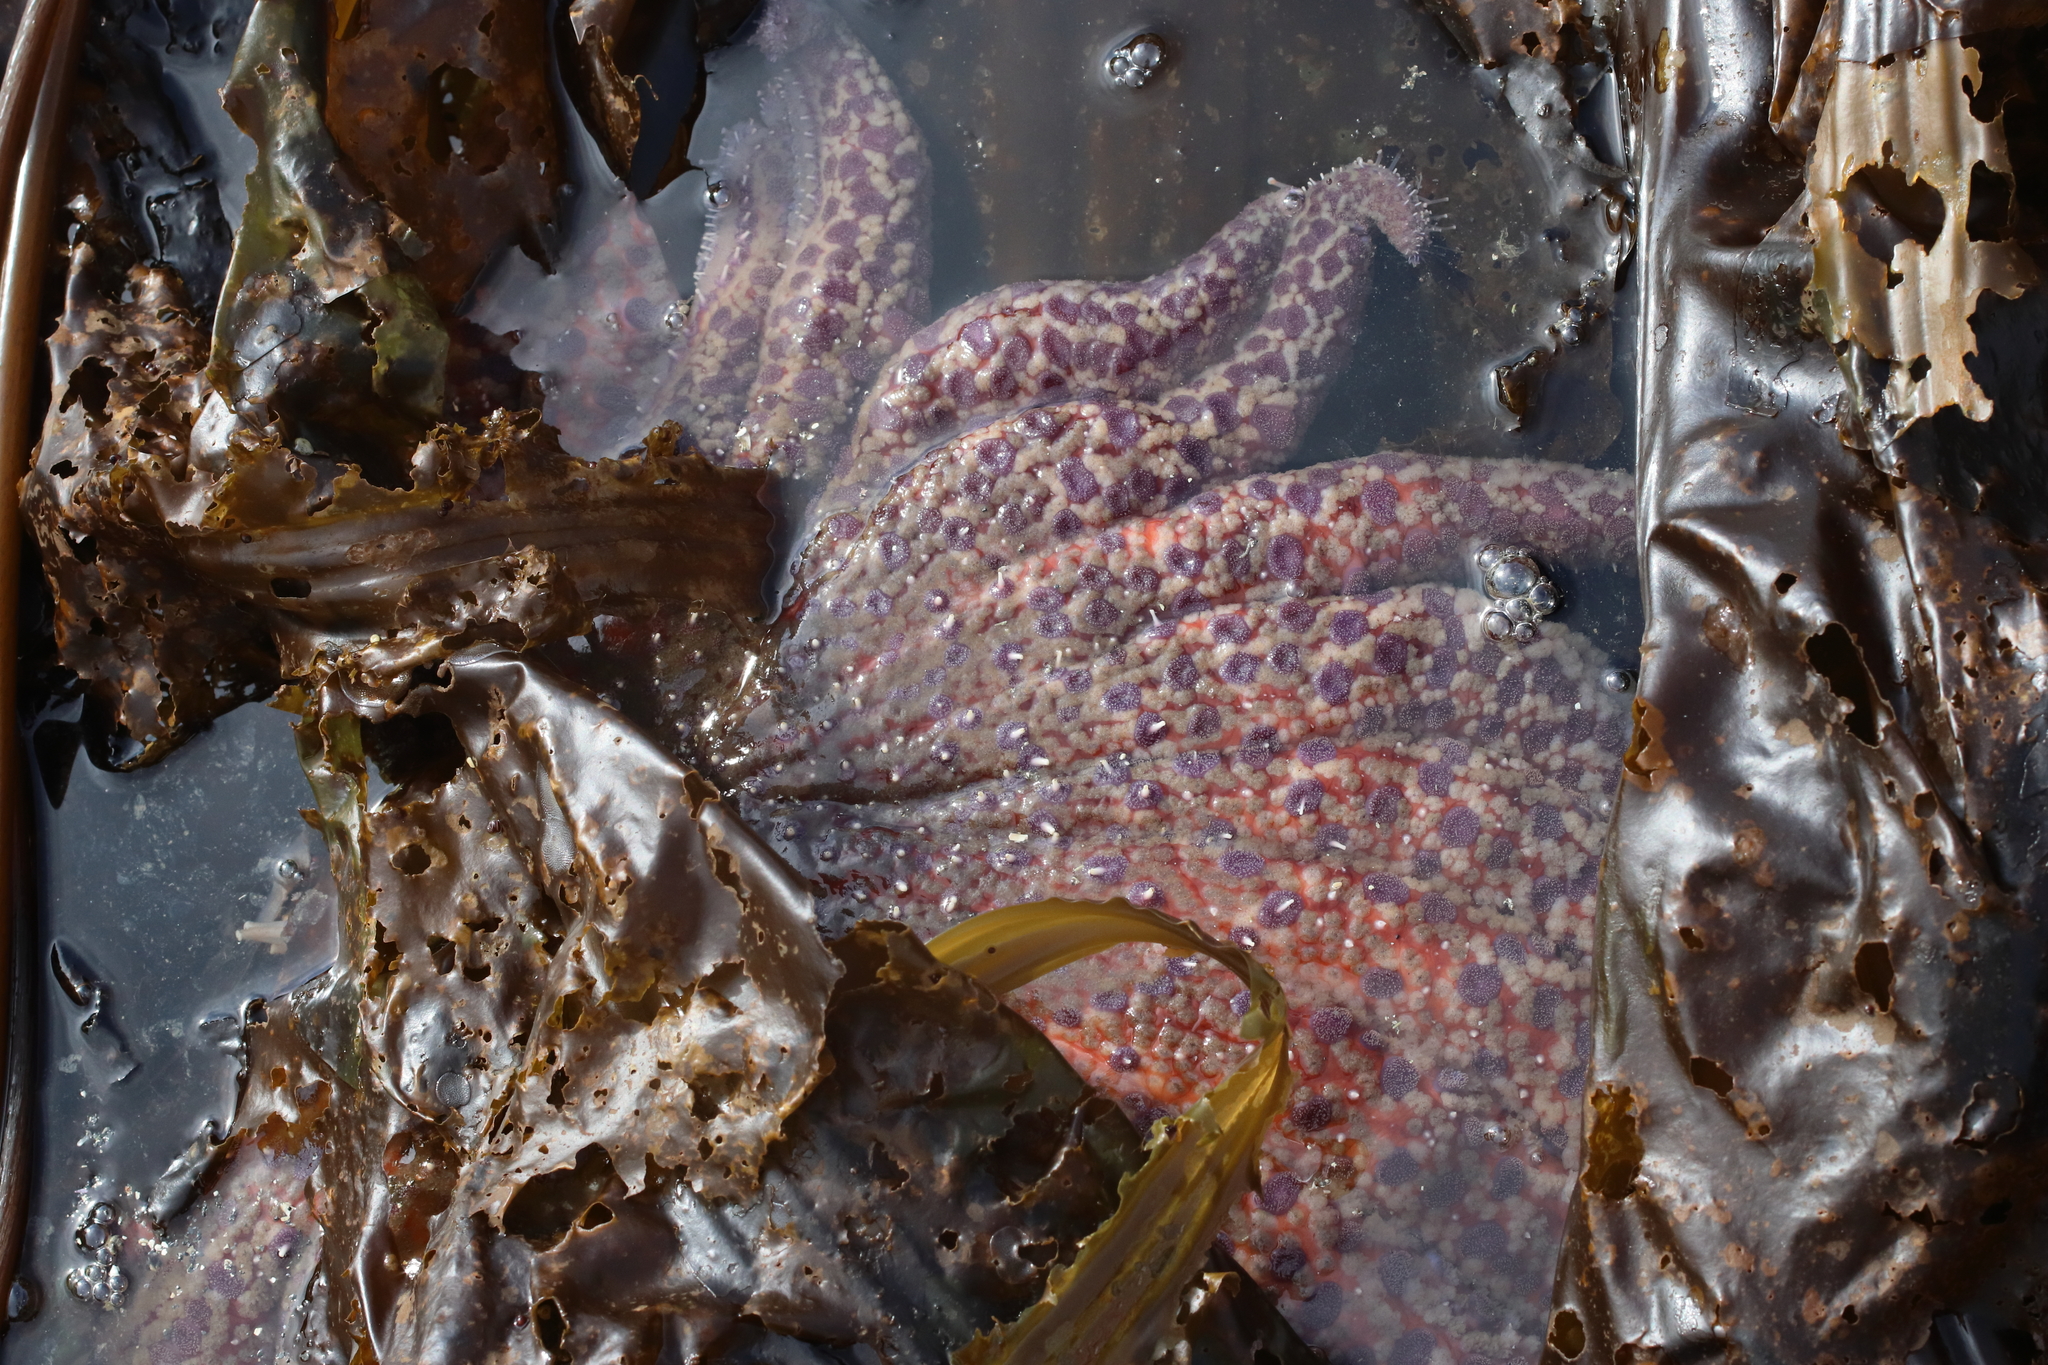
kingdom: Animalia
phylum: Echinodermata
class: Asteroidea
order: Forcipulatida
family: Asteriidae
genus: Pycnopodia
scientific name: Pycnopodia helianthoides
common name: Rag mop
